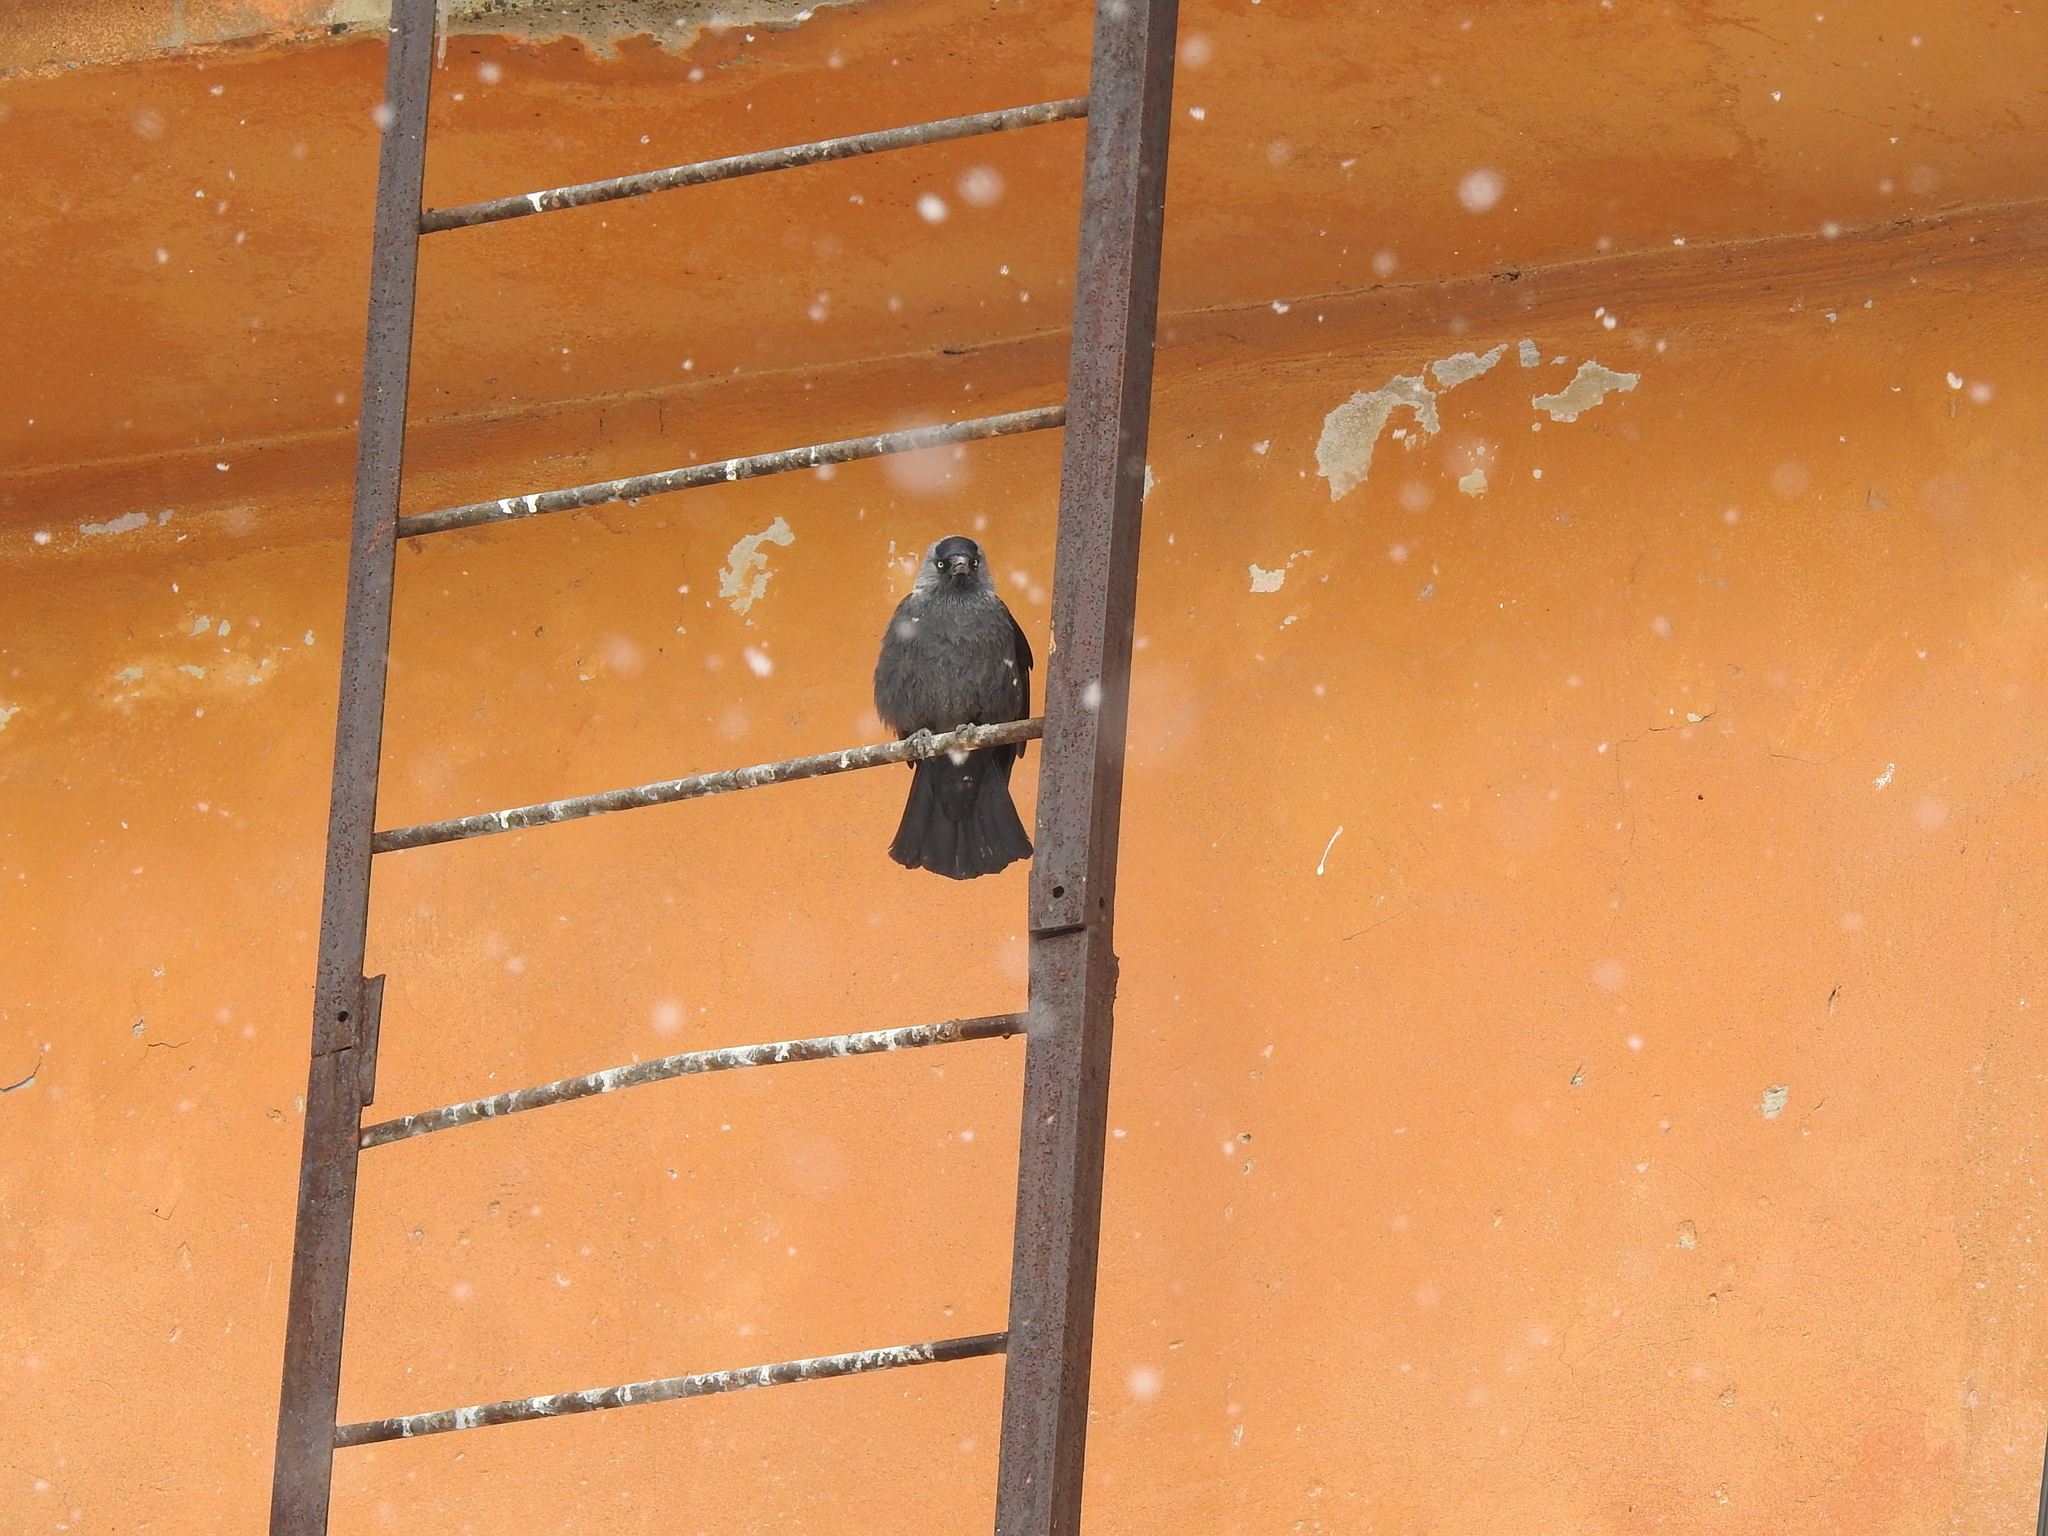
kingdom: Animalia
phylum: Chordata
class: Aves
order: Passeriformes
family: Corvidae
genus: Coloeus
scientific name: Coloeus monedula
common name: Western jackdaw
